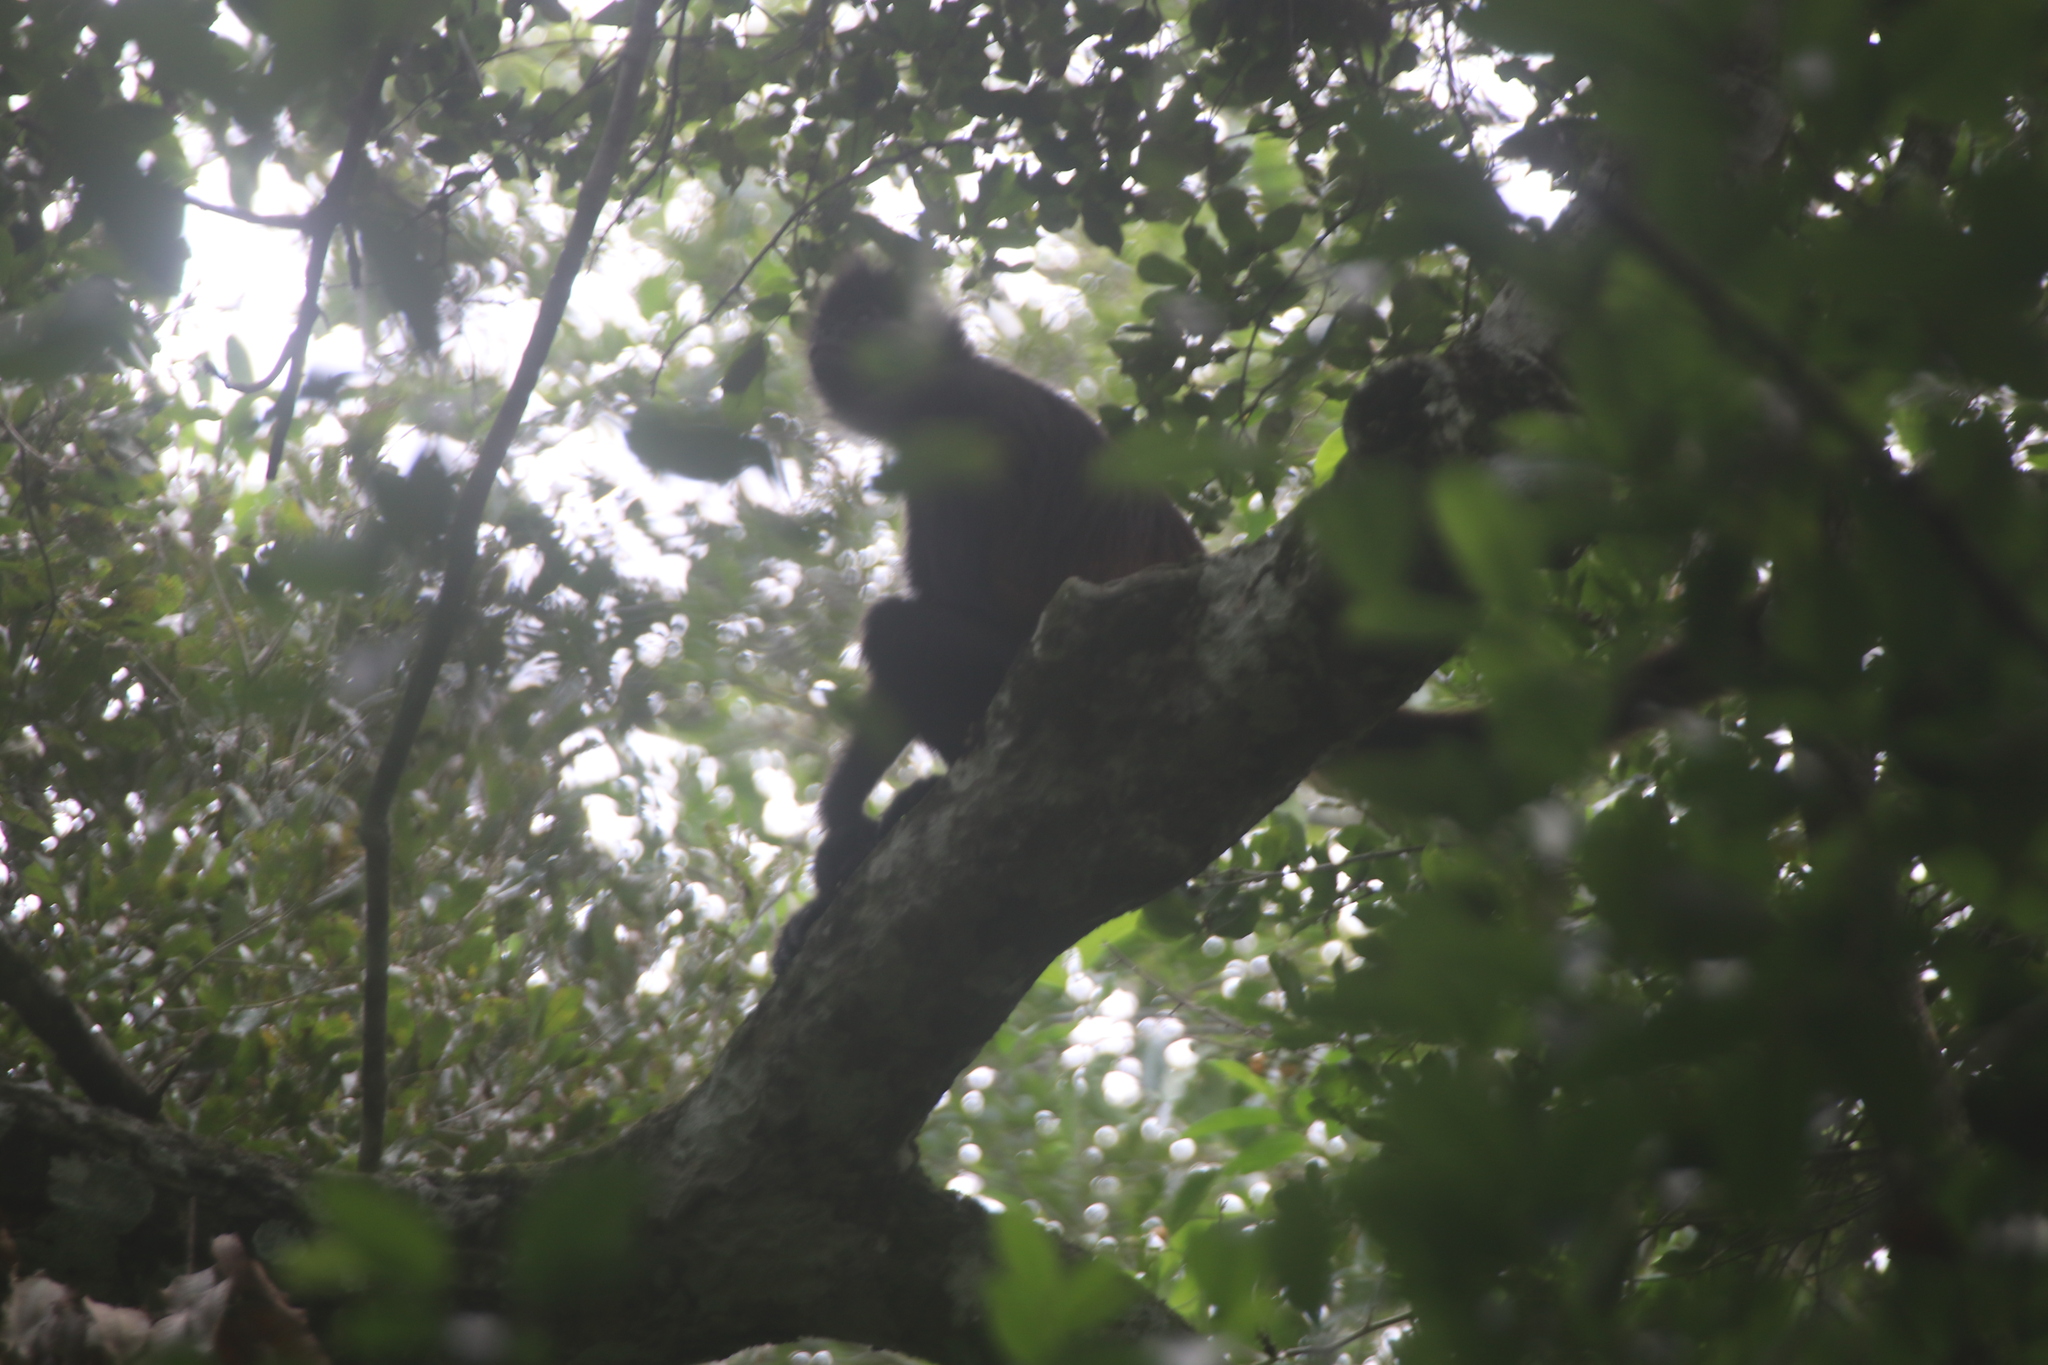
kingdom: Animalia
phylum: Chordata
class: Mammalia
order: Primates
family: Atelidae
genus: Ateles
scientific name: Ateles geoffroyi
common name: Black-handed spider monkey
